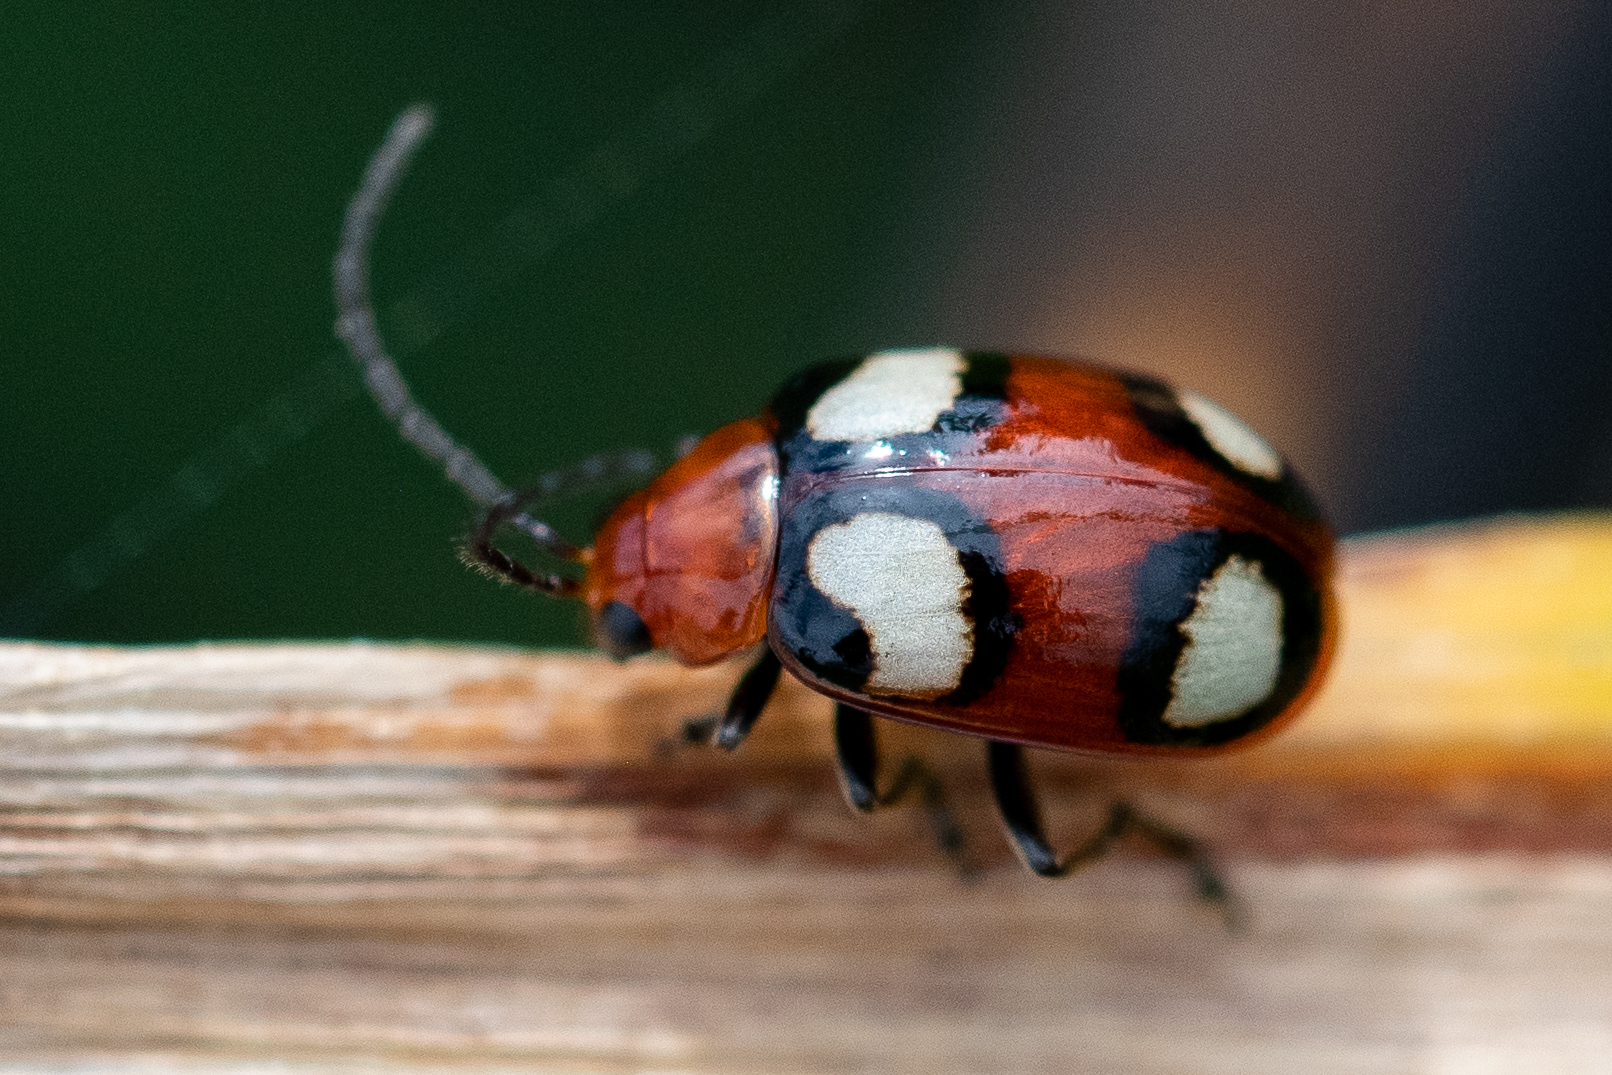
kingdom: Animalia
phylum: Arthropoda
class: Insecta
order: Coleoptera
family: Chrysomelidae
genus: Monolepta
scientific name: Monolepta
